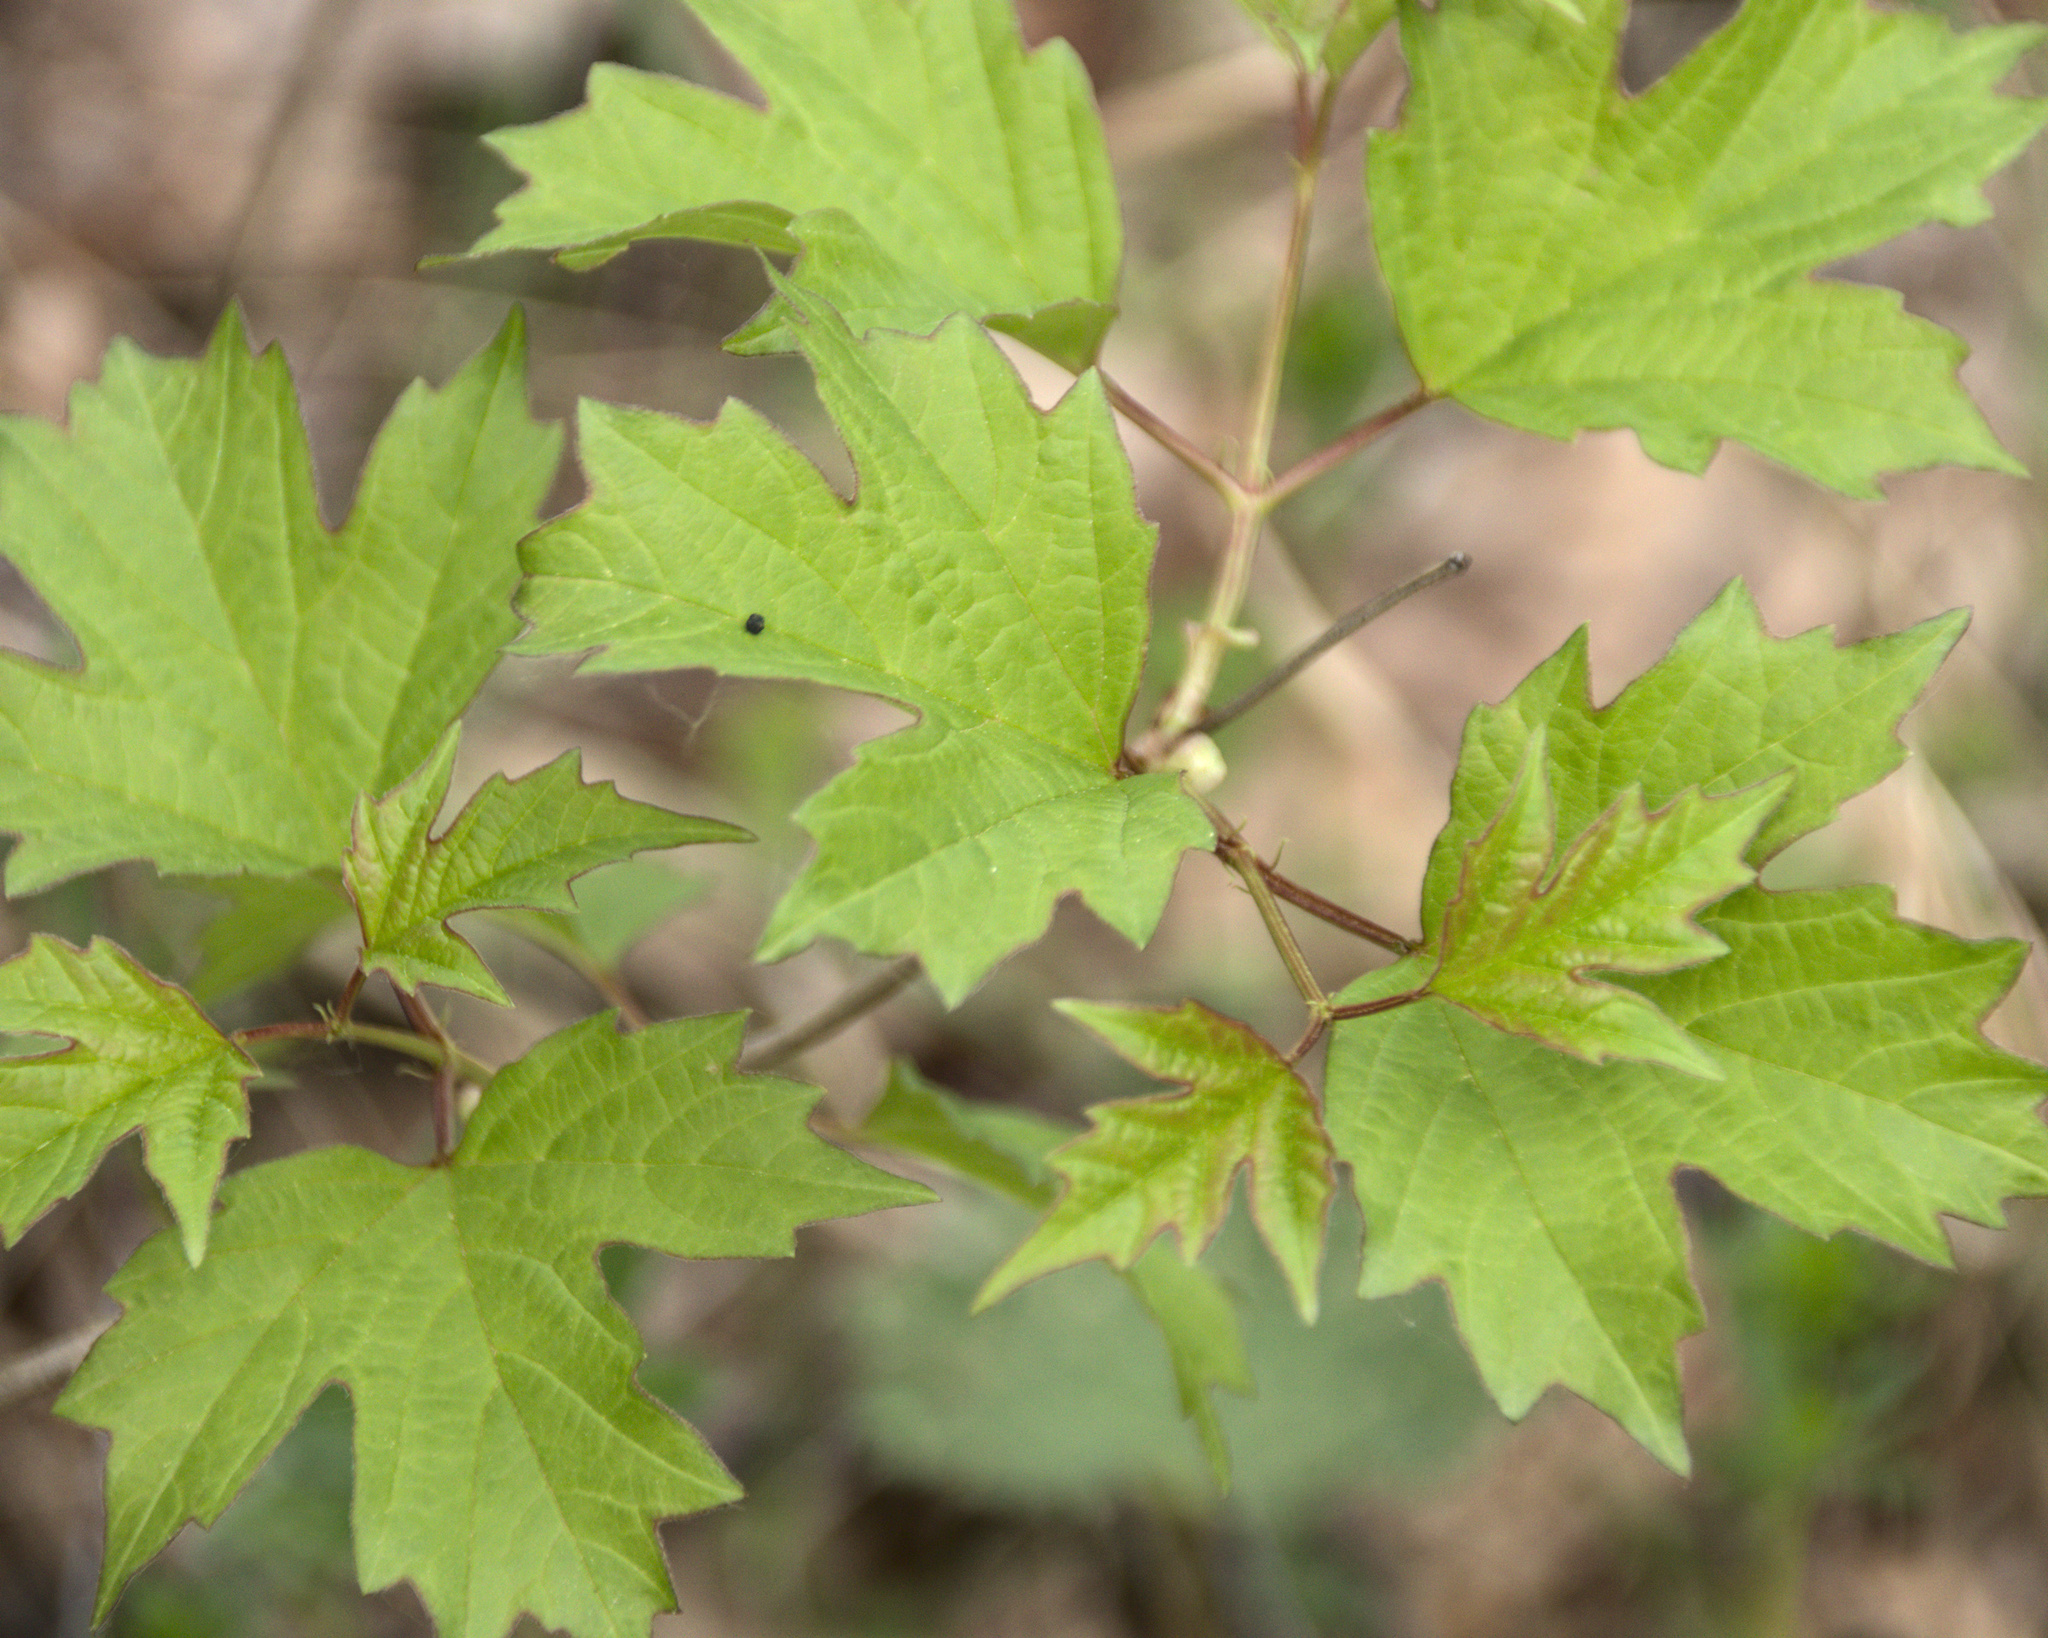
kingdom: Plantae
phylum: Tracheophyta
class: Magnoliopsida
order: Dipsacales
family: Viburnaceae
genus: Viburnum
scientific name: Viburnum opulus
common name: Guelder-rose
